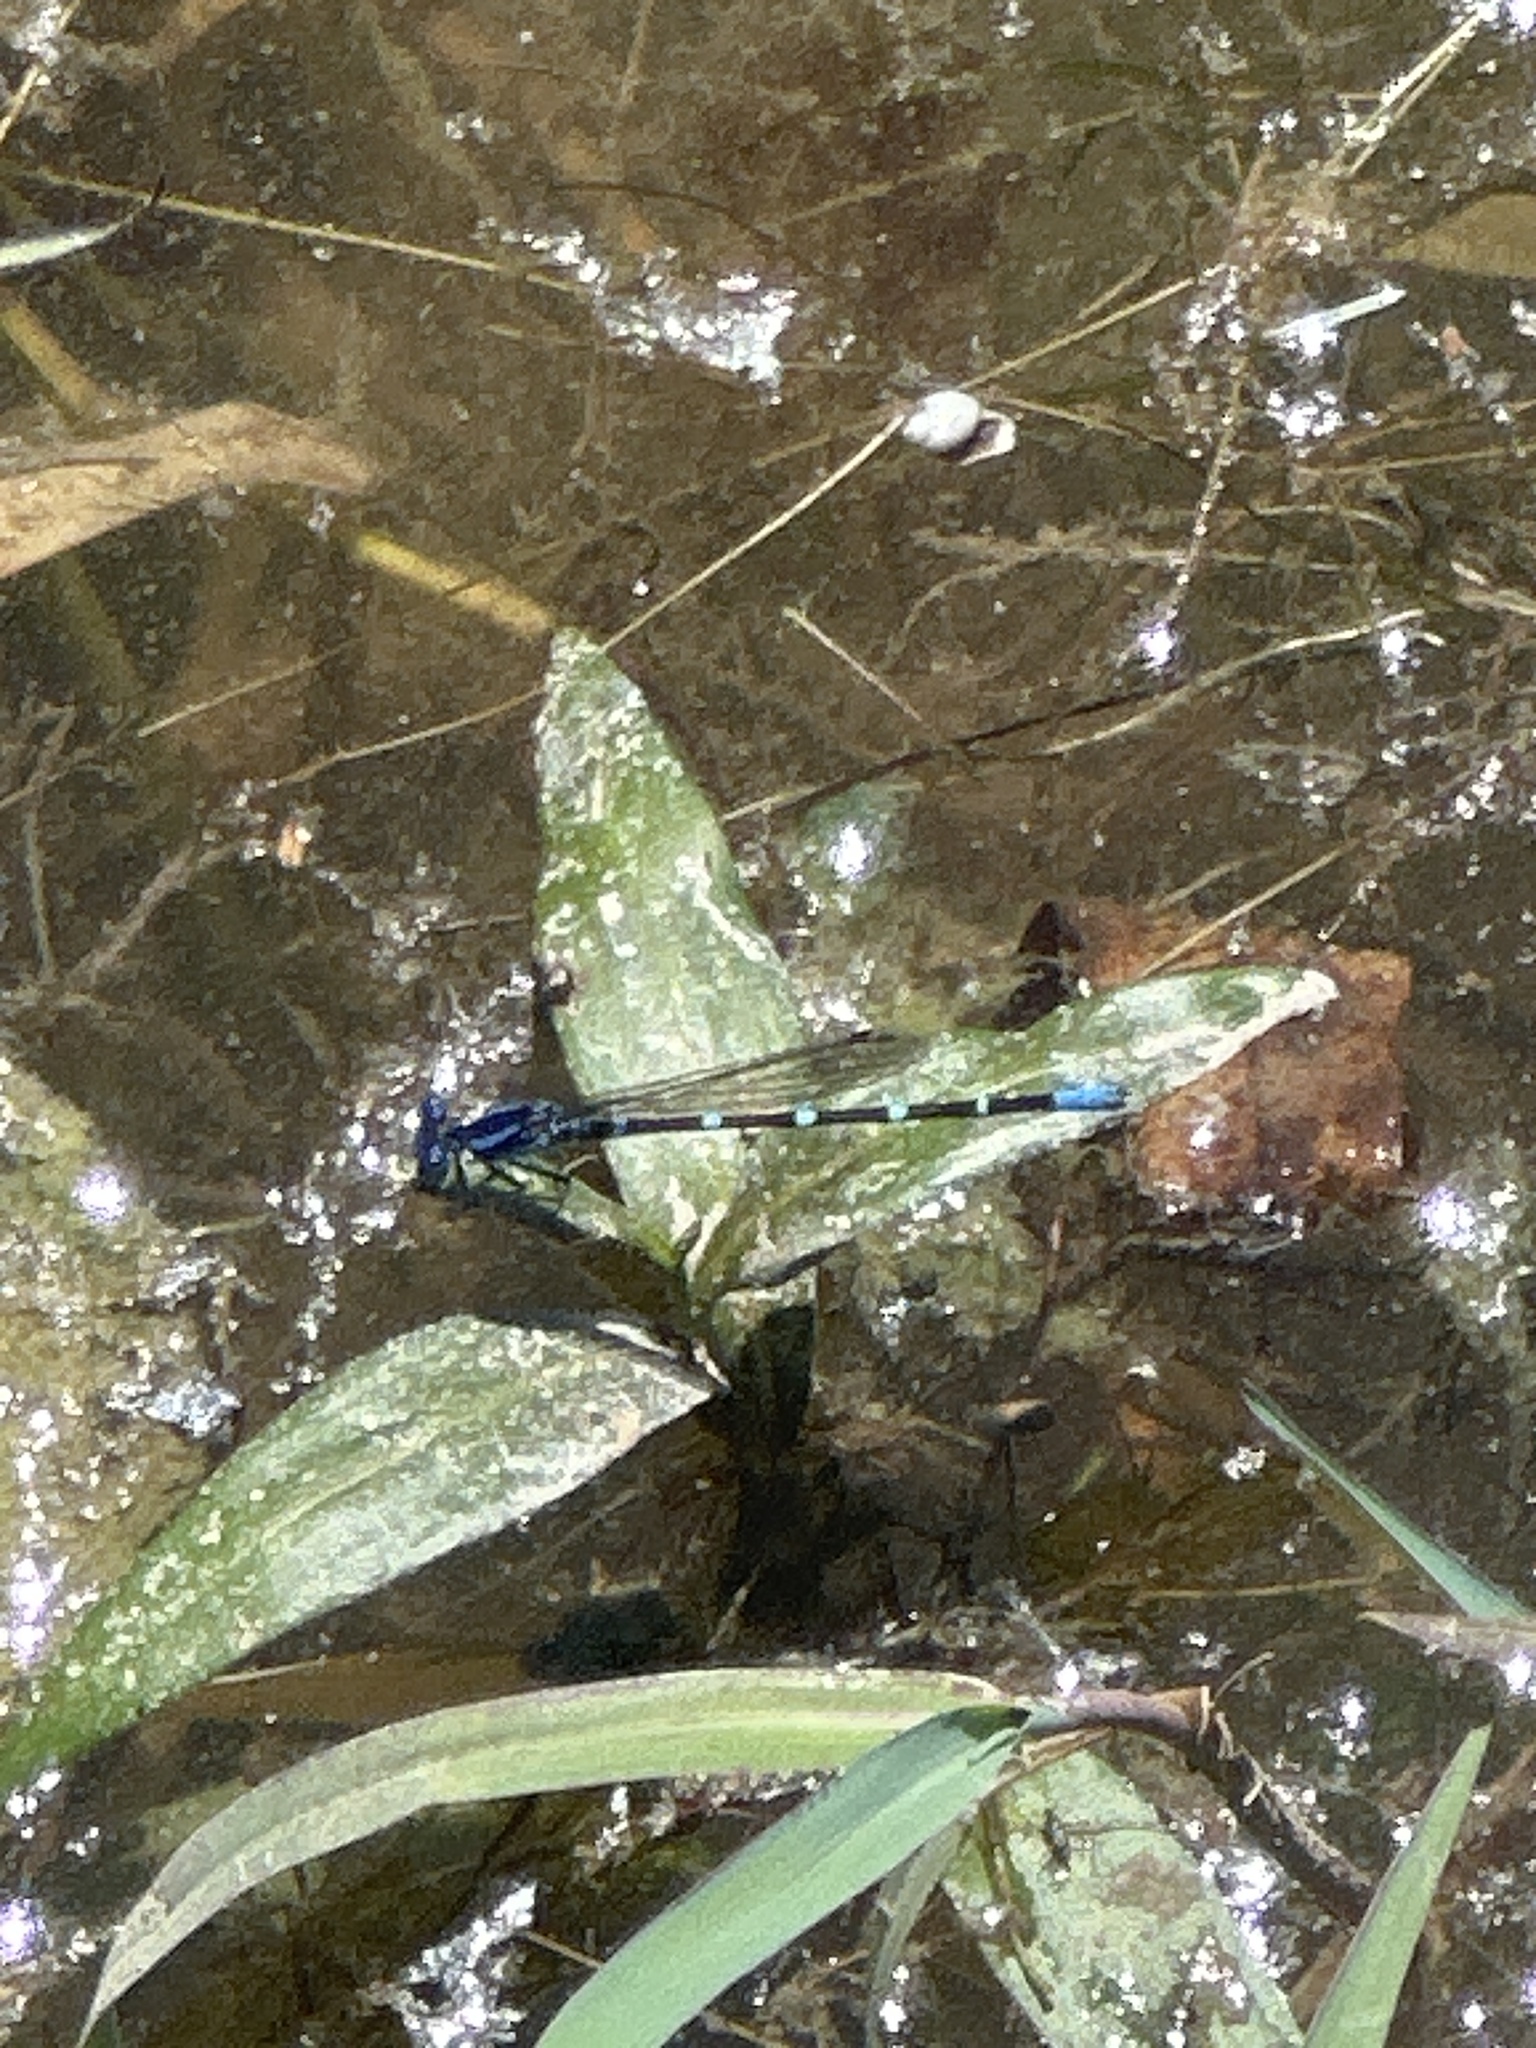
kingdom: Animalia
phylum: Arthropoda
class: Insecta
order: Odonata
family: Coenagrionidae
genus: Argia
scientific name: Argia sedula
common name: Blue-ringed dancer
